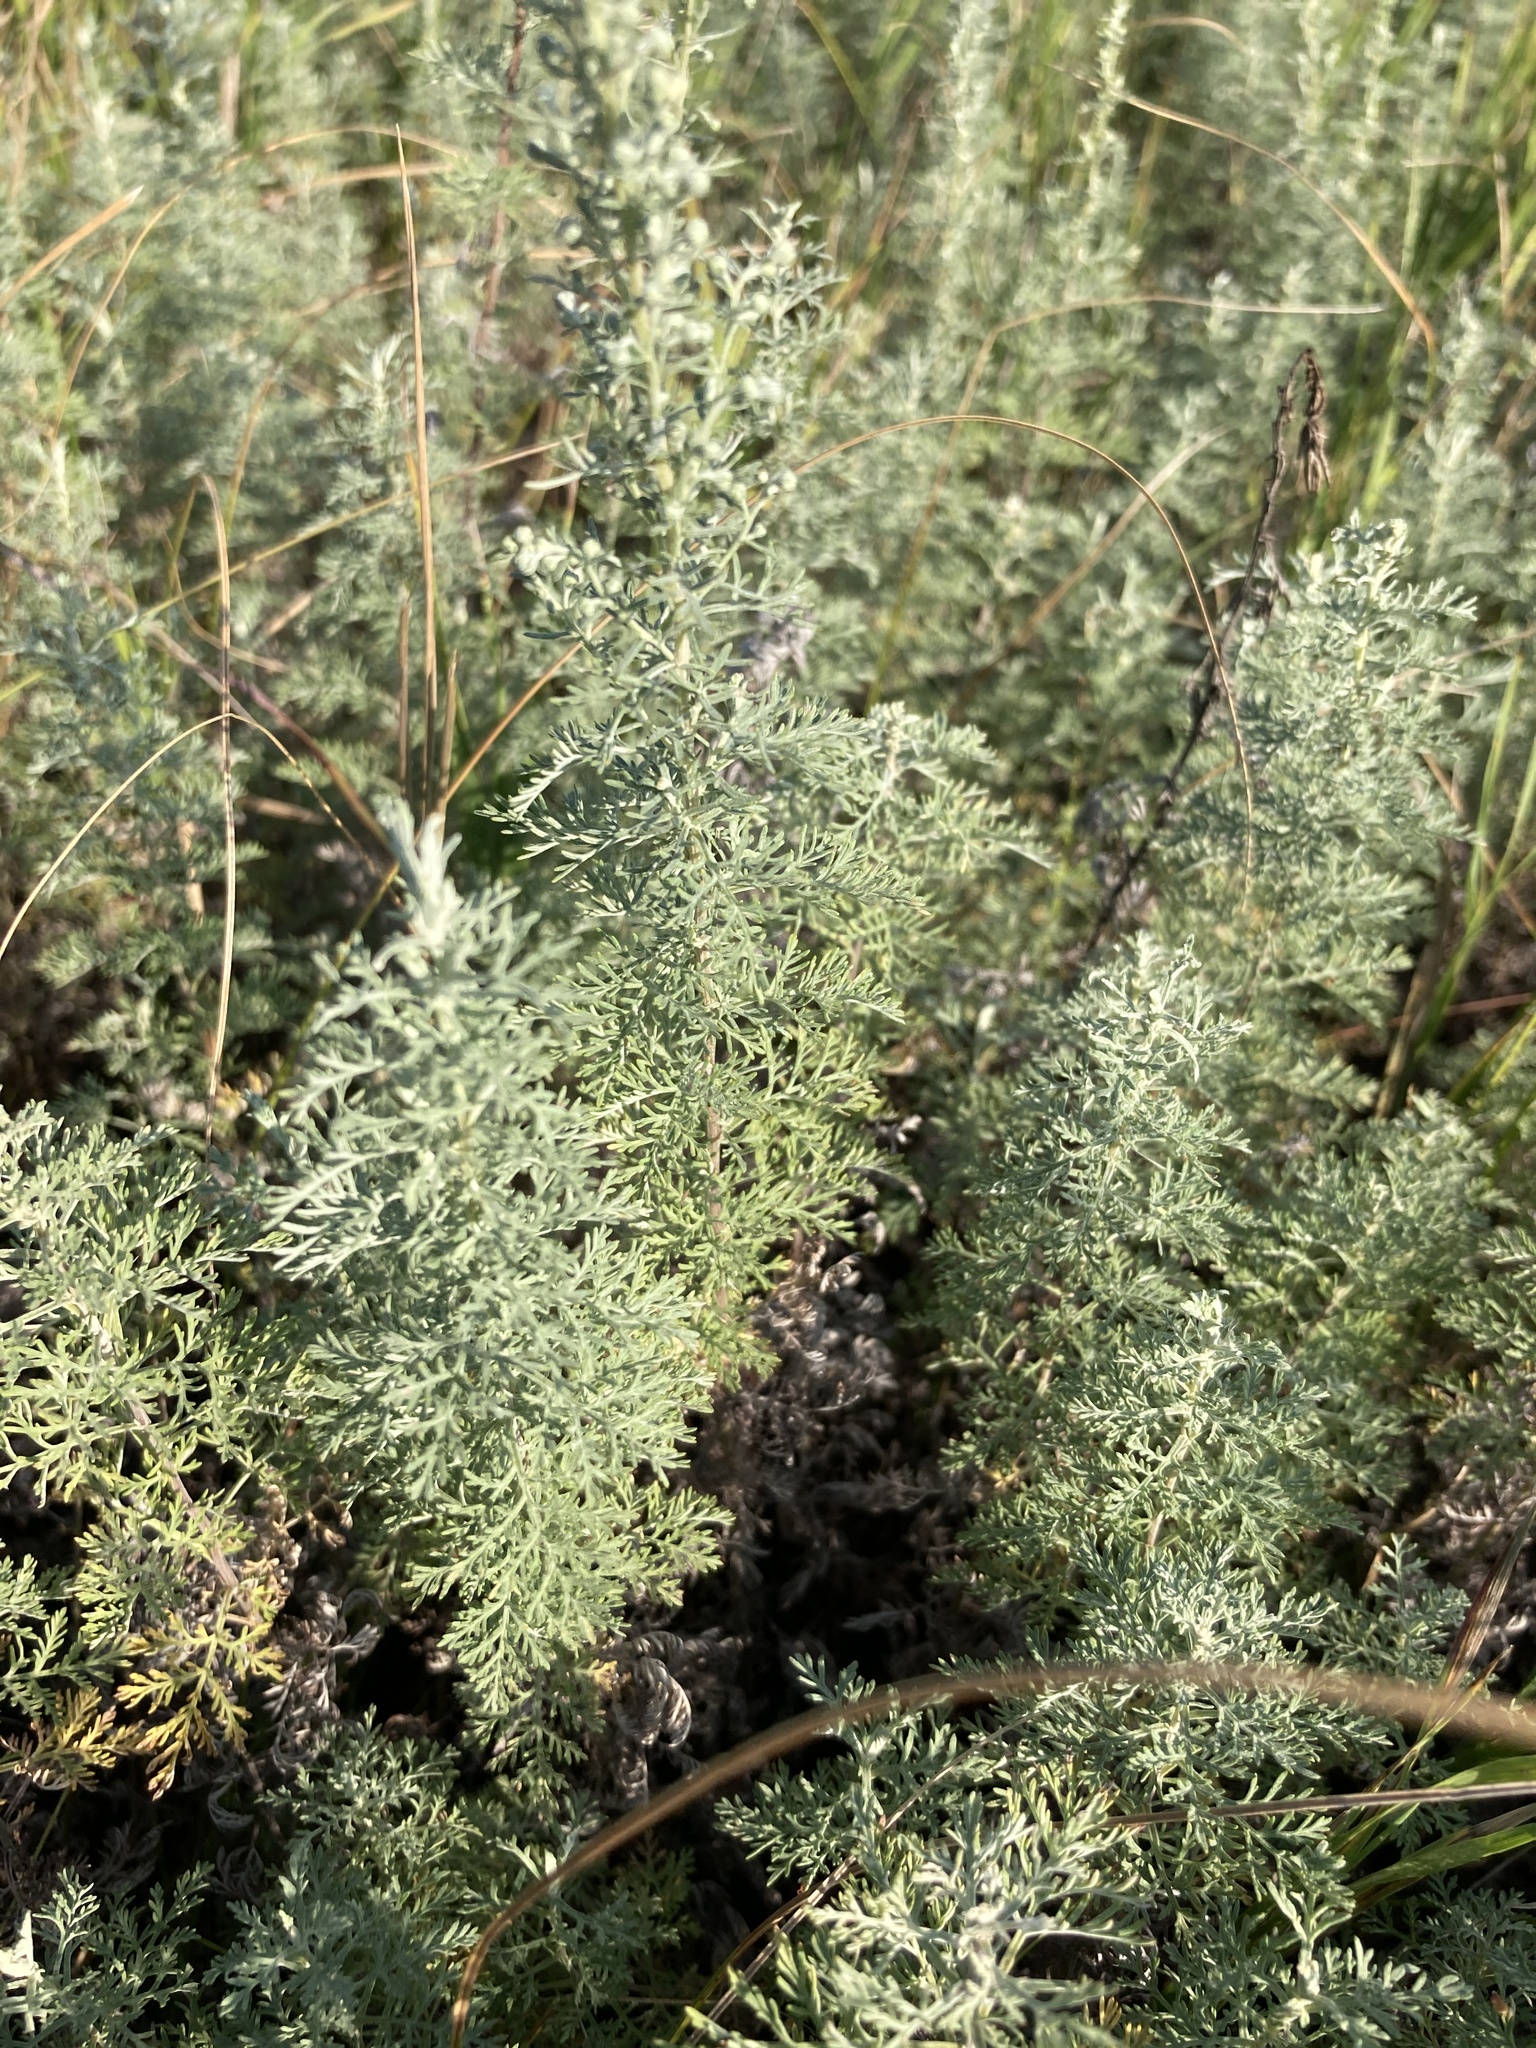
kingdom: Plantae
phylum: Tracheophyta
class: Magnoliopsida
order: Asterales
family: Asteraceae
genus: Artemisia
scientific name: Artemisia pontica
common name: Roman wormwood
